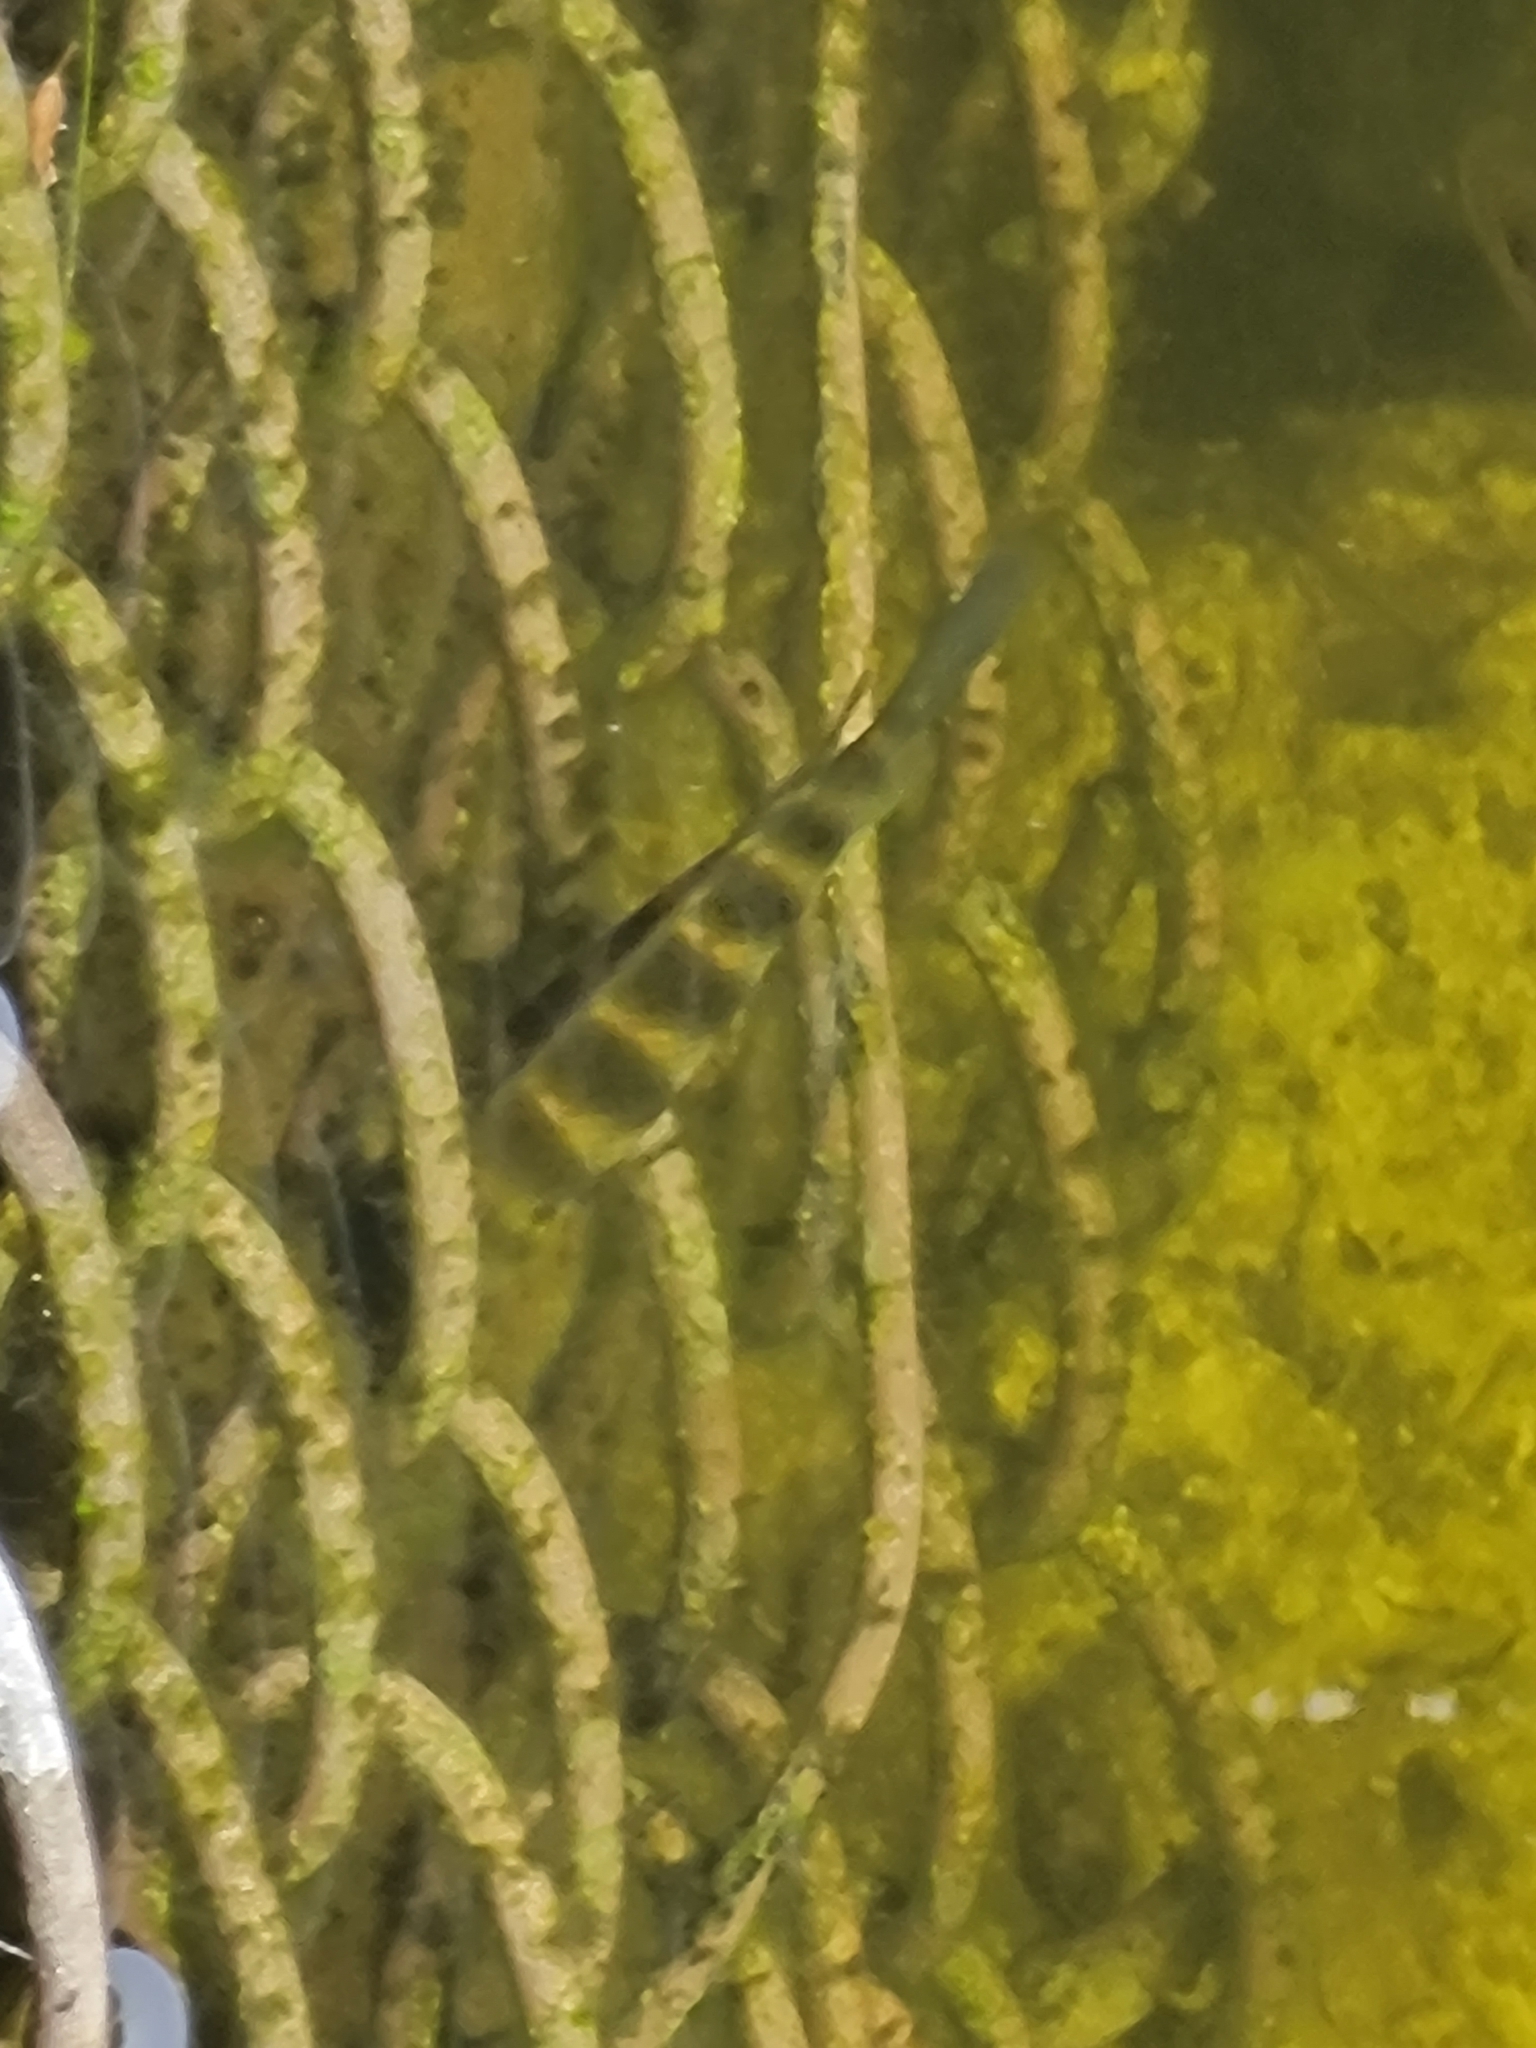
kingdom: Animalia
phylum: Chordata
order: Perciformes
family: Cichlidae
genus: Pelmatolapia
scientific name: Pelmatolapia mariae
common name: Spotted tilapia
